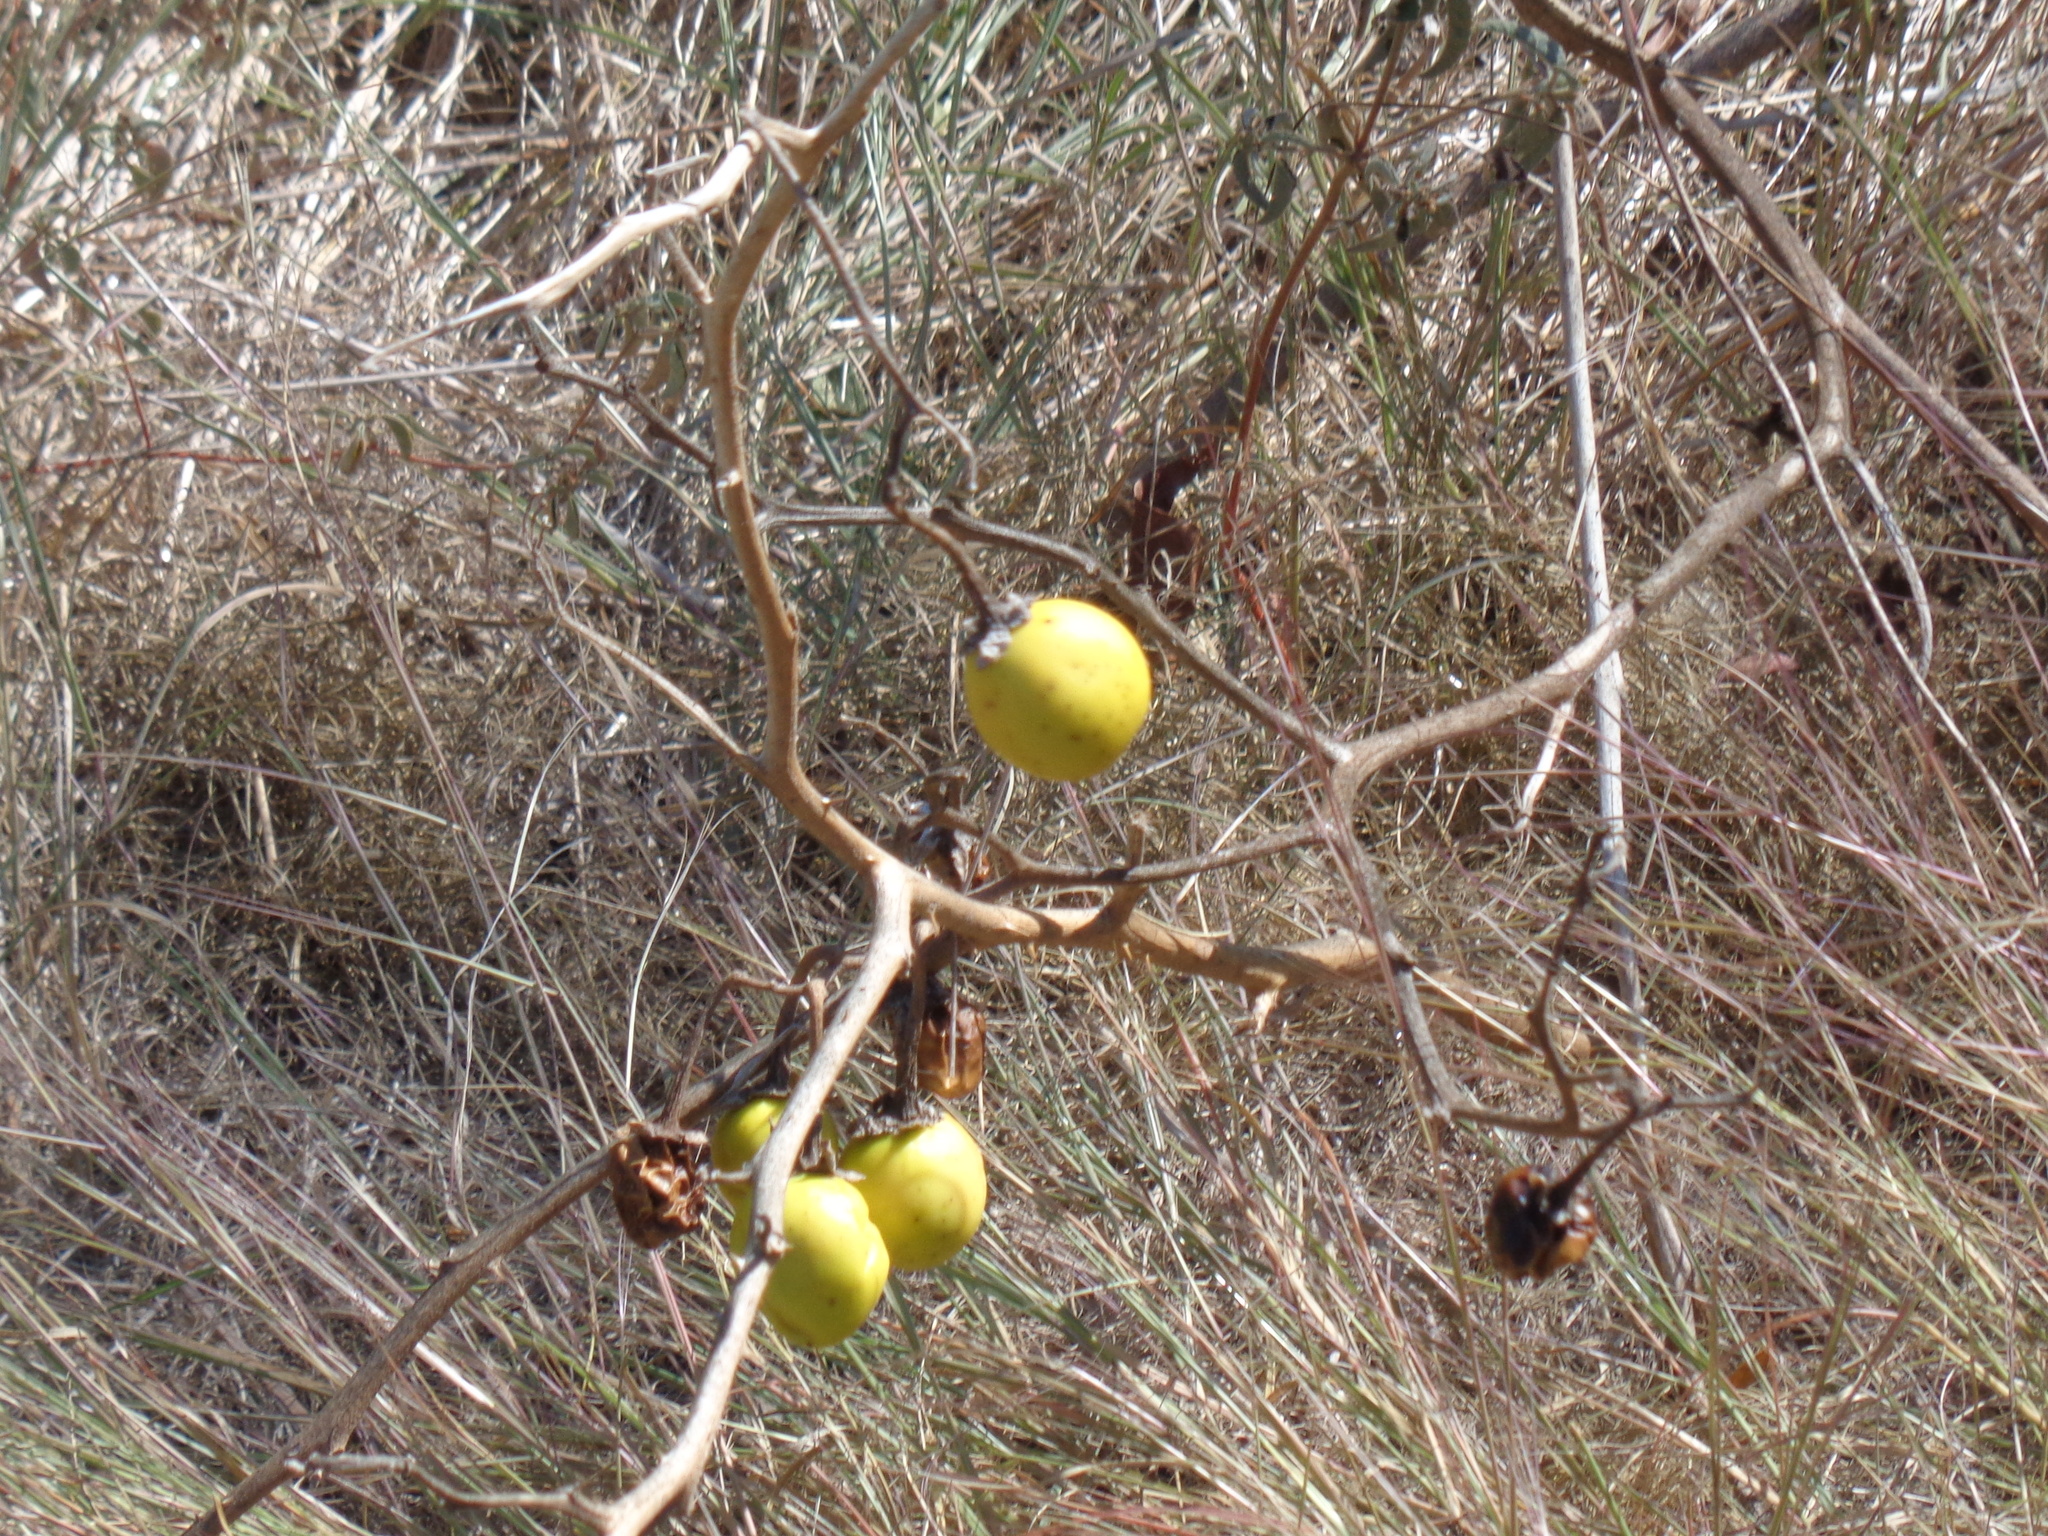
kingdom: Plantae
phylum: Tracheophyta
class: Magnoliopsida
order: Solanales
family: Solanaceae
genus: Solanum
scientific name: Solanum dimidiatum
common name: Carolina horse-nettle
